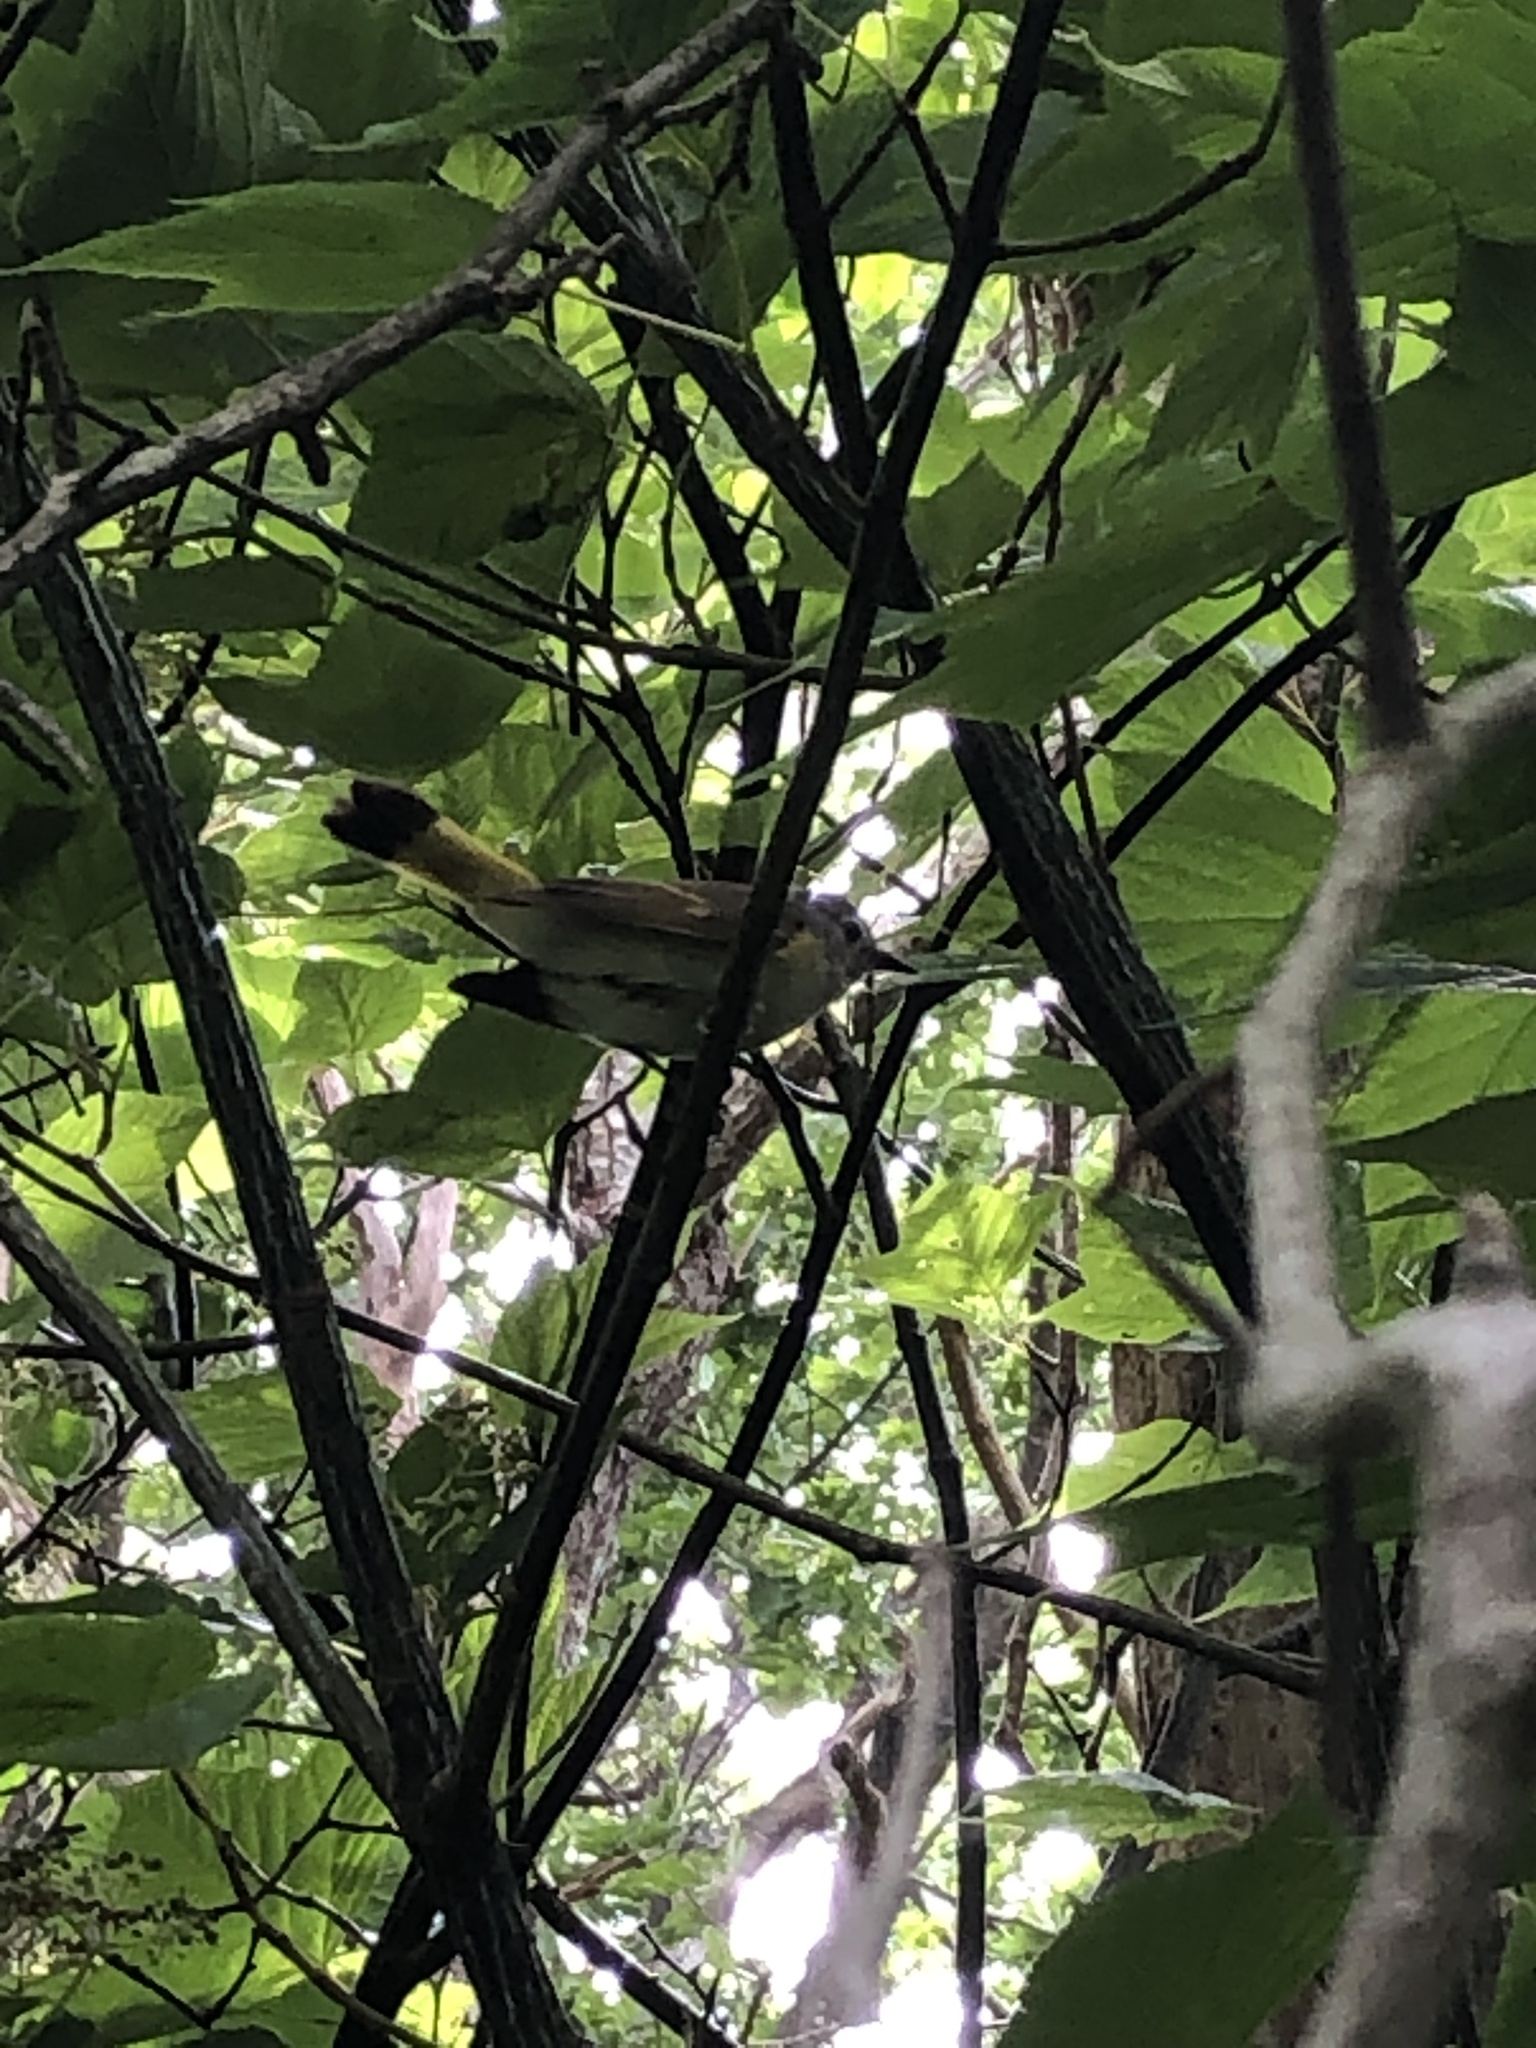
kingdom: Animalia
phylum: Chordata
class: Aves
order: Passeriformes
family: Parulidae
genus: Setophaga
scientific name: Setophaga ruticilla
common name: American redstart
